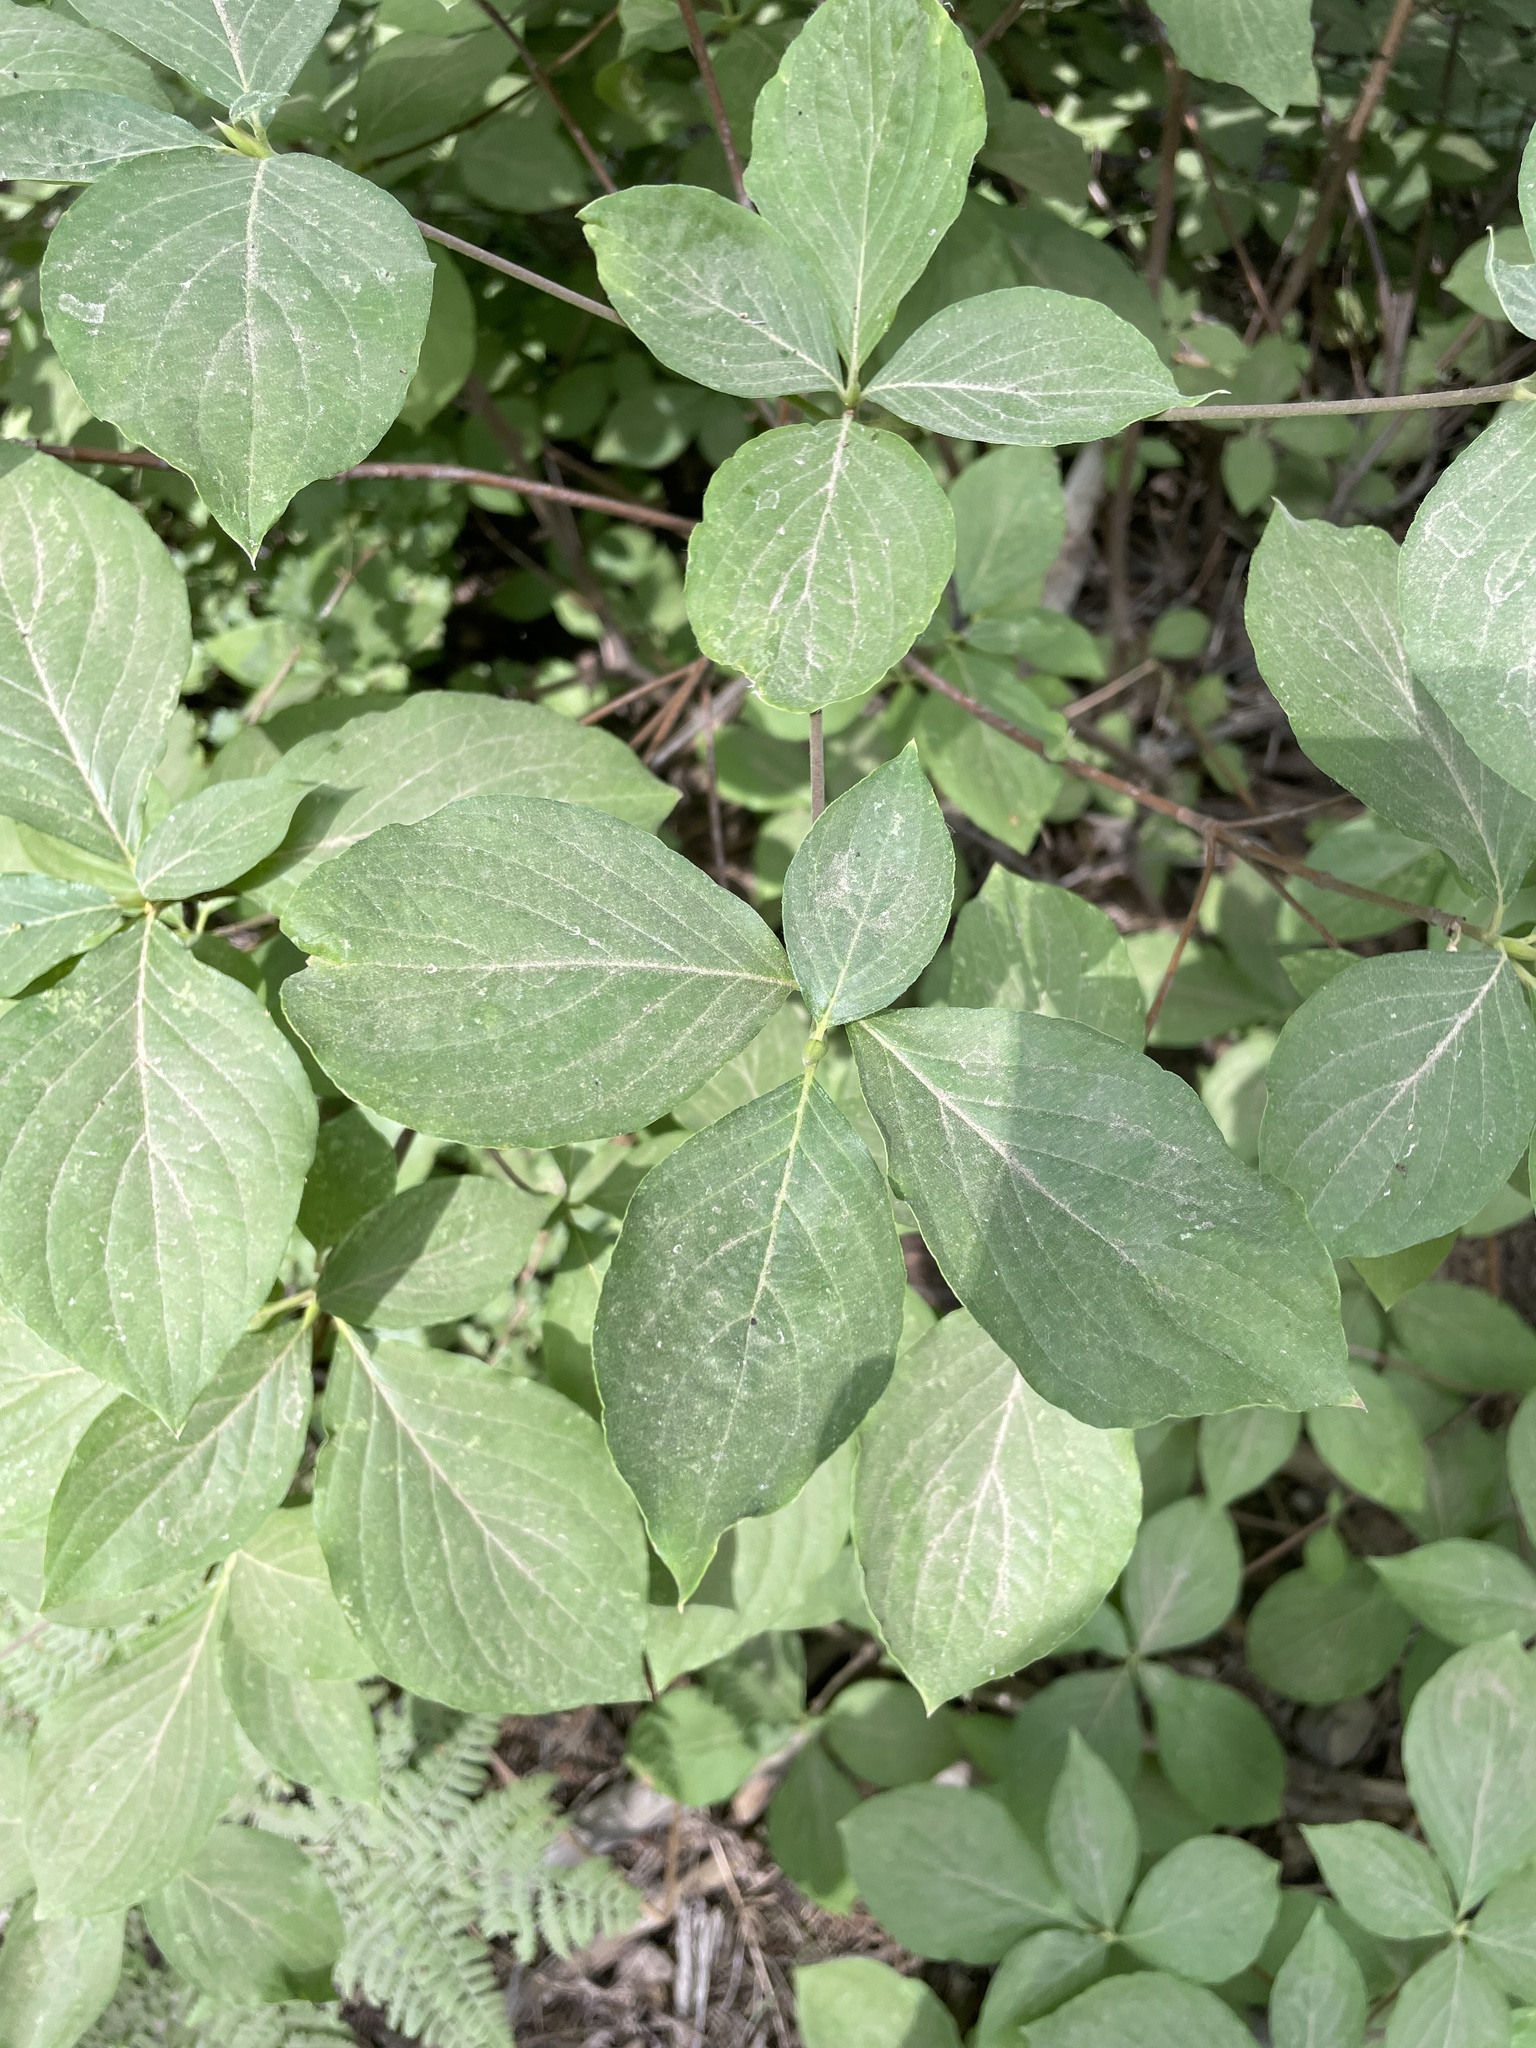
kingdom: Plantae
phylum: Tracheophyta
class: Magnoliopsida
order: Cornales
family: Cornaceae
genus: Cornus
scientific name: Cornus nuttallii
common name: Pacific dogwood
